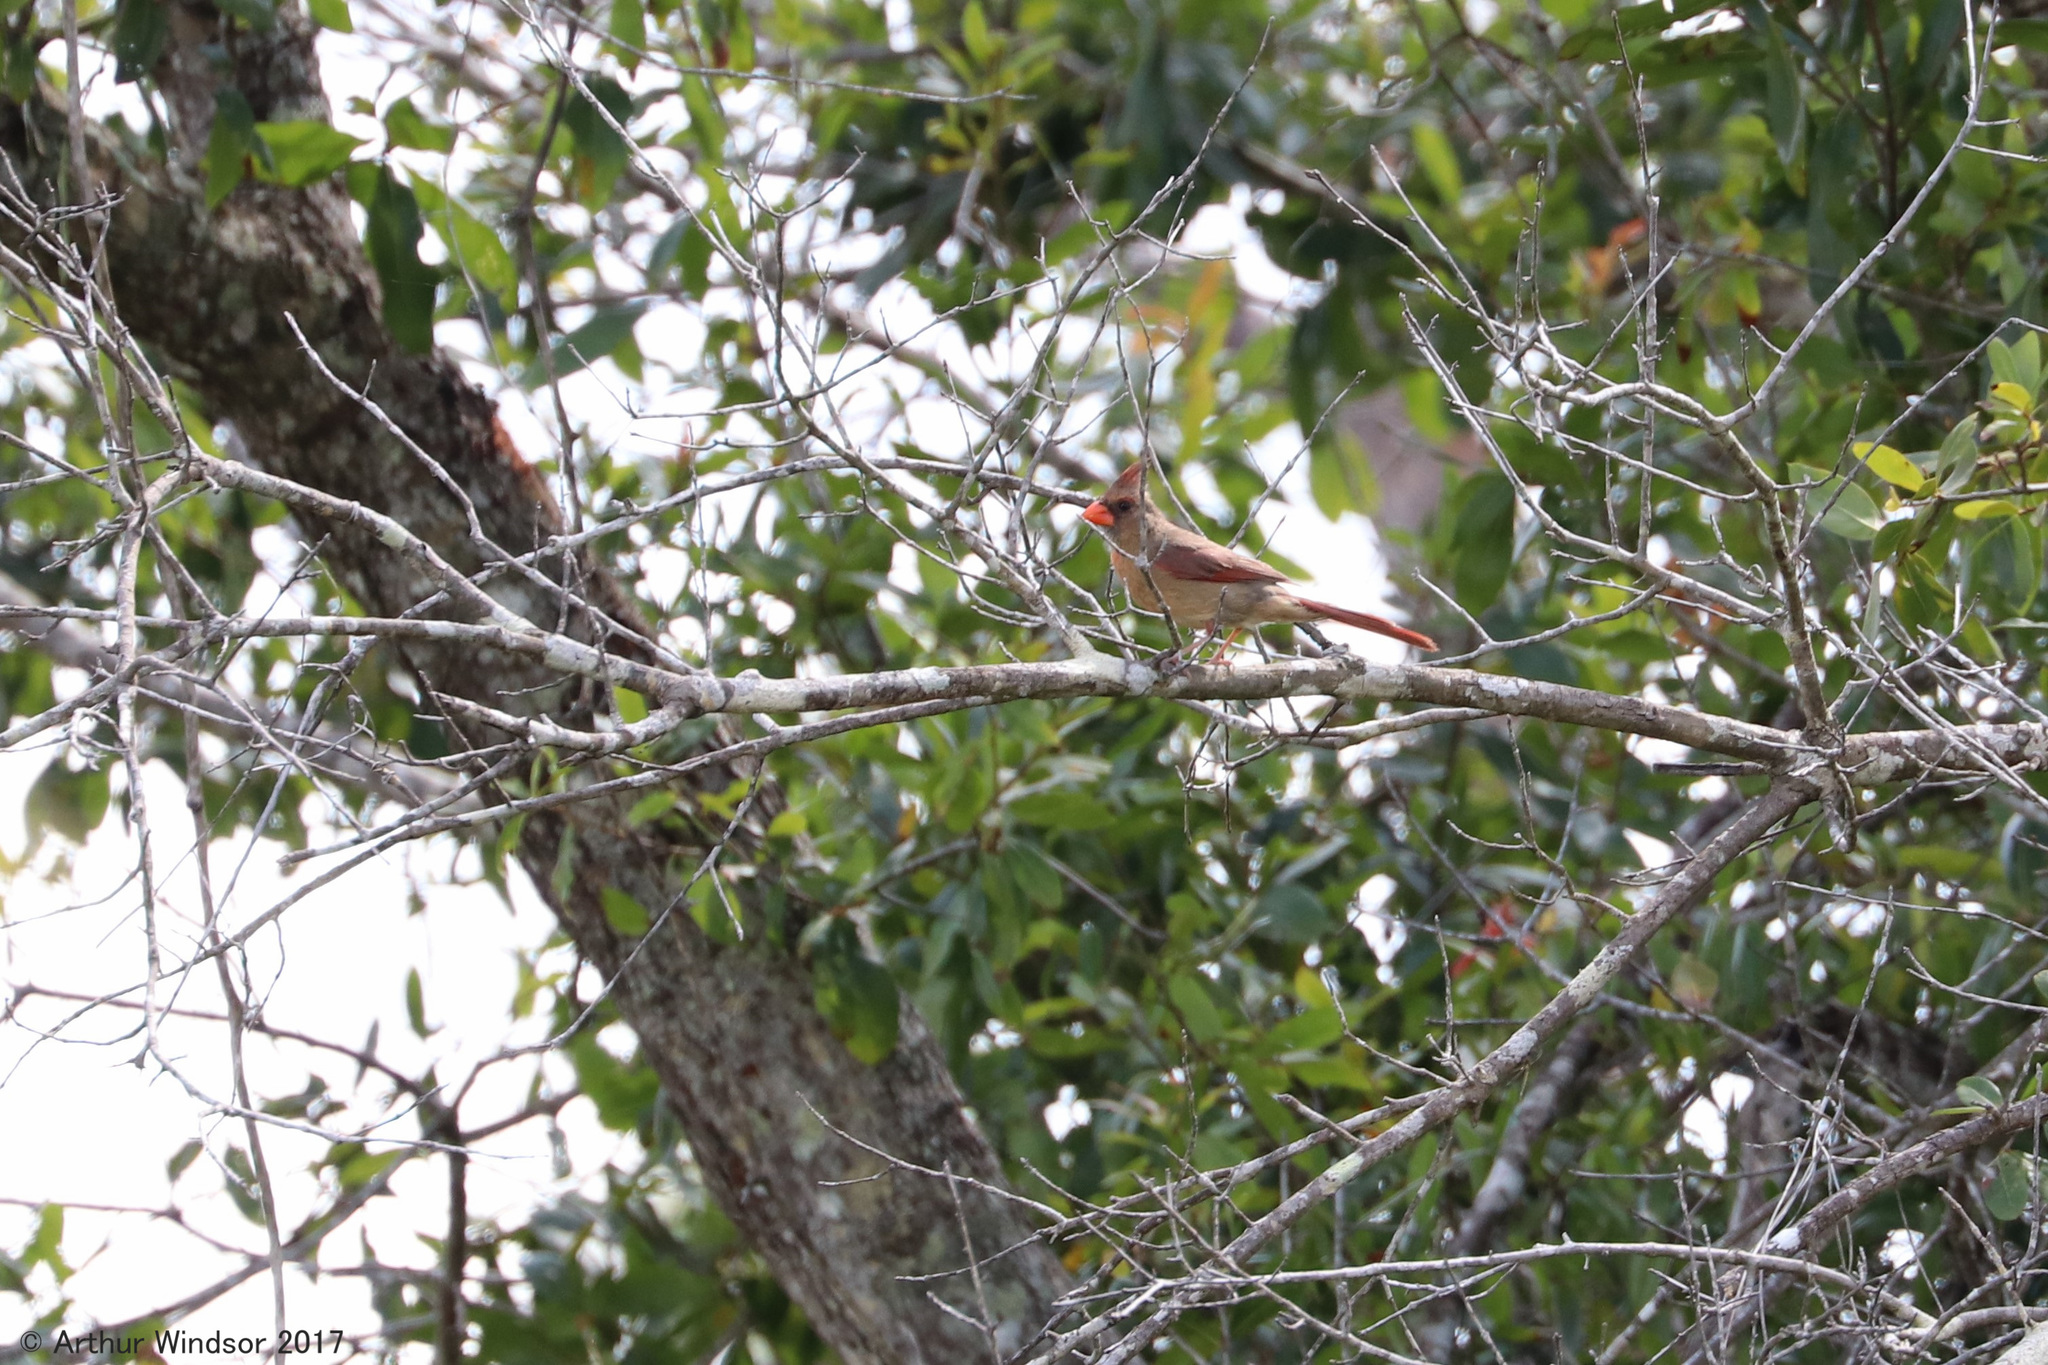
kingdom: Animalia
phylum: Chordata
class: Aves
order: Passeriformes
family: Cardinalidae
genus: Cardinalis
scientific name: Cardinalis cardinalis
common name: Northern cardinal
